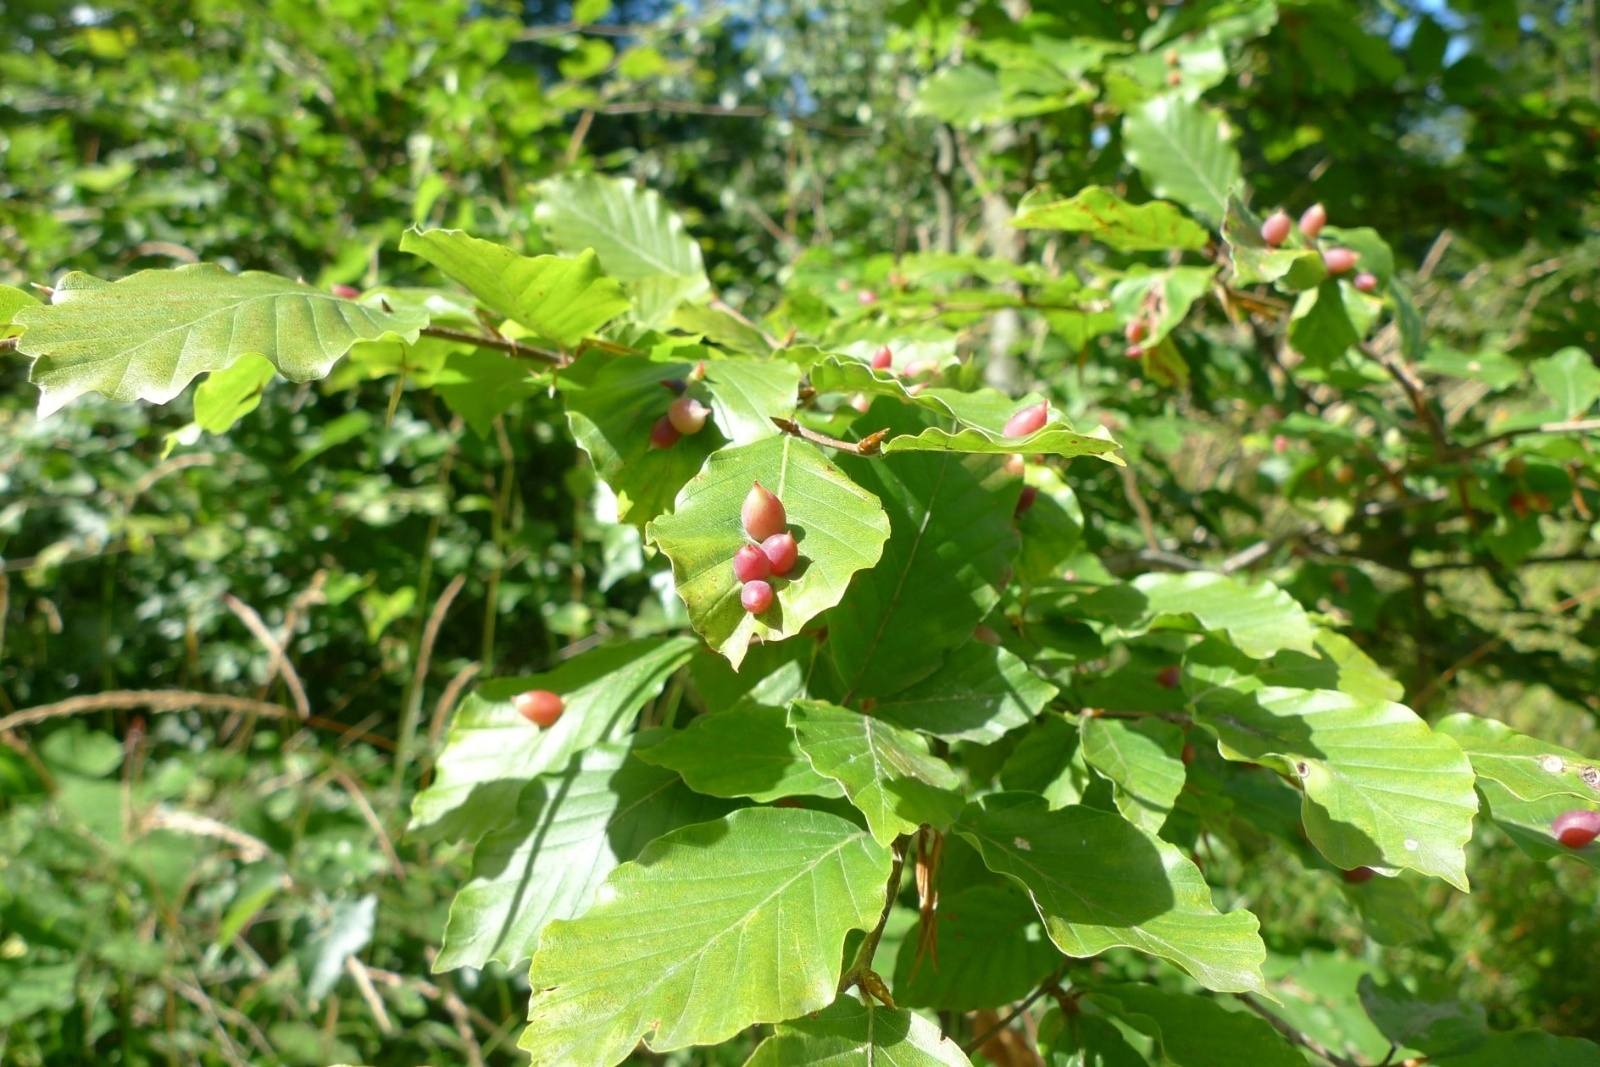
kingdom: Animalia
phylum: Arthropoda
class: Insecta
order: Diptera
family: Cecidomyiidae
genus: Mikiola
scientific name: Mikiola fagi
